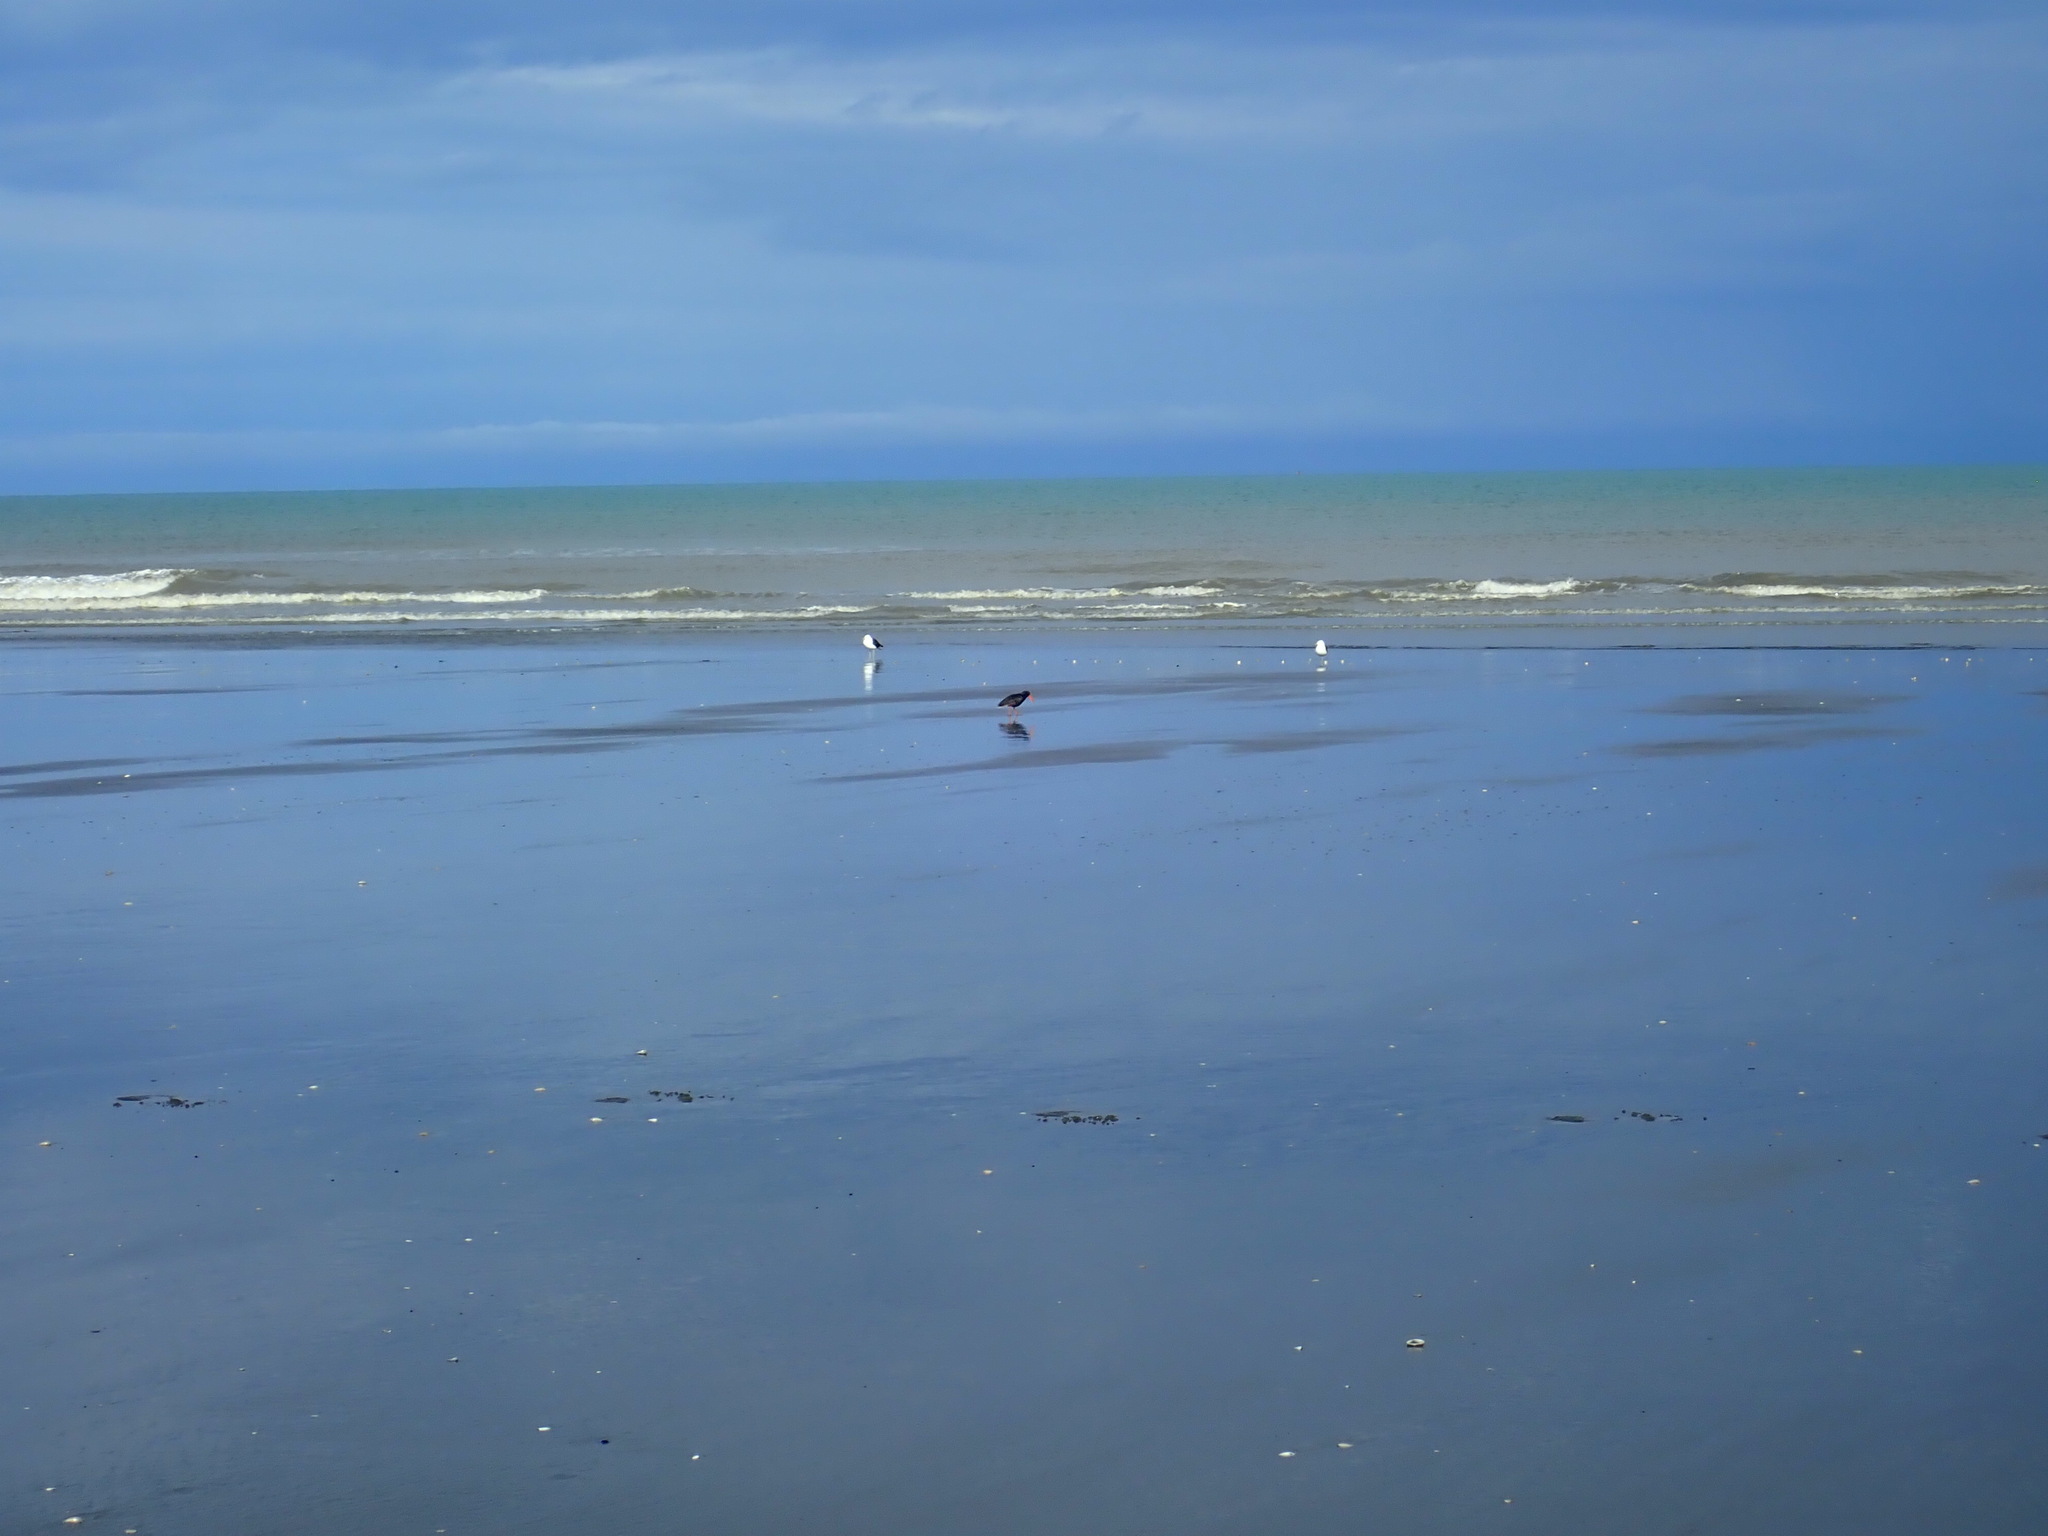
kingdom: Animalia
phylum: Chordata
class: Aves
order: Charadriiformes
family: Haematopodidae
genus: Haematopus
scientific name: Haematopus unicolor
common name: Variable oystercatcher
